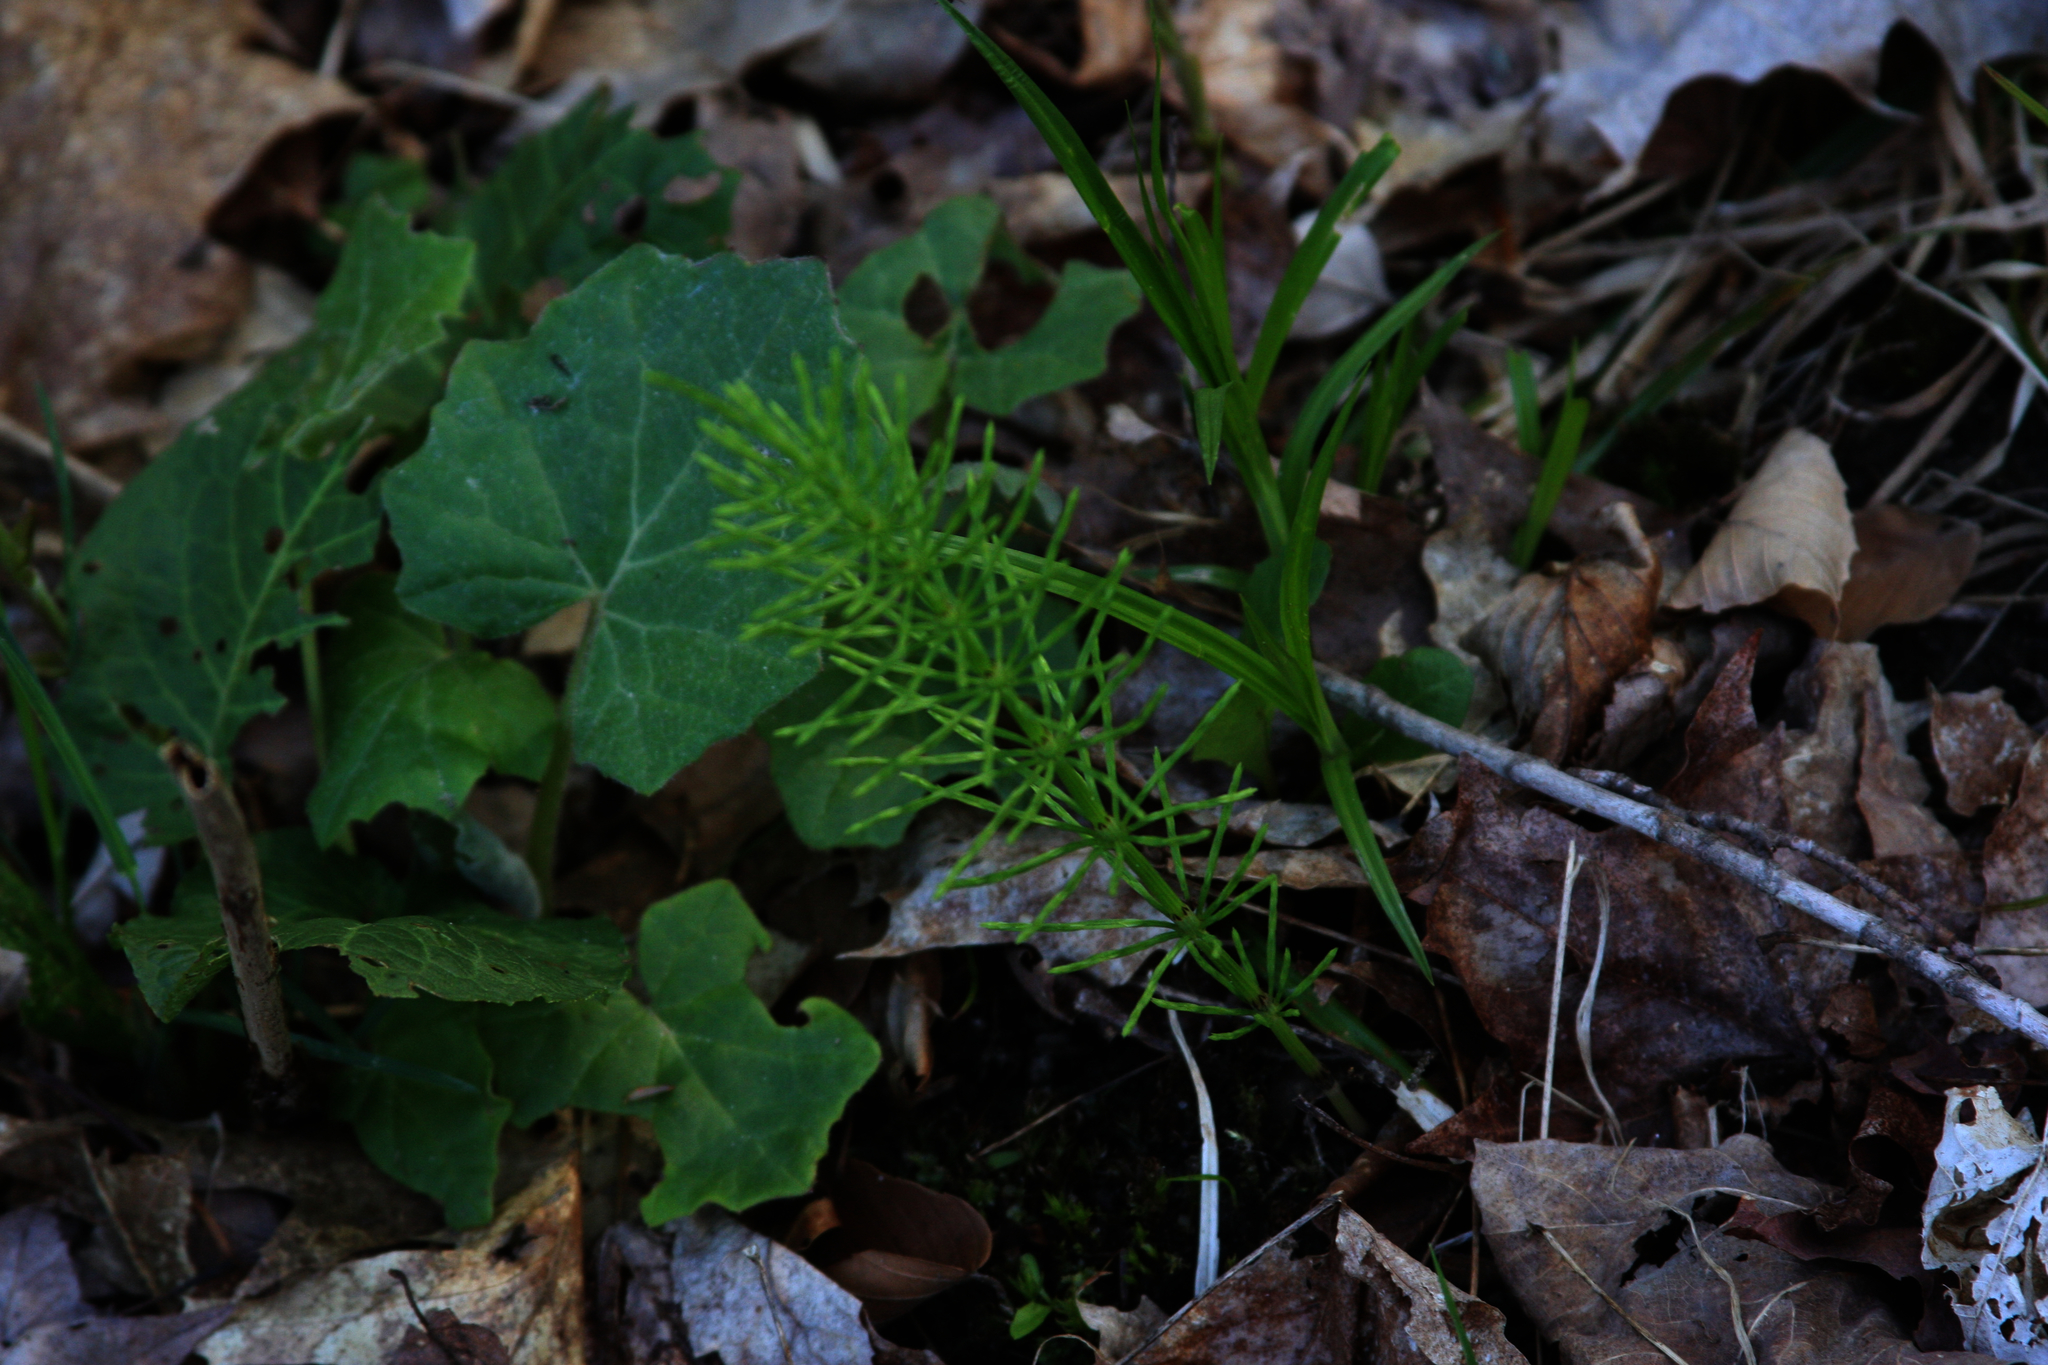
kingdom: Plantae
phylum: Tracheophyta
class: Polypodiopsida
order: Equisetales
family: Equisetaceae
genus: Equisetum
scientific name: Equisetum arvense
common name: Field horsetail
